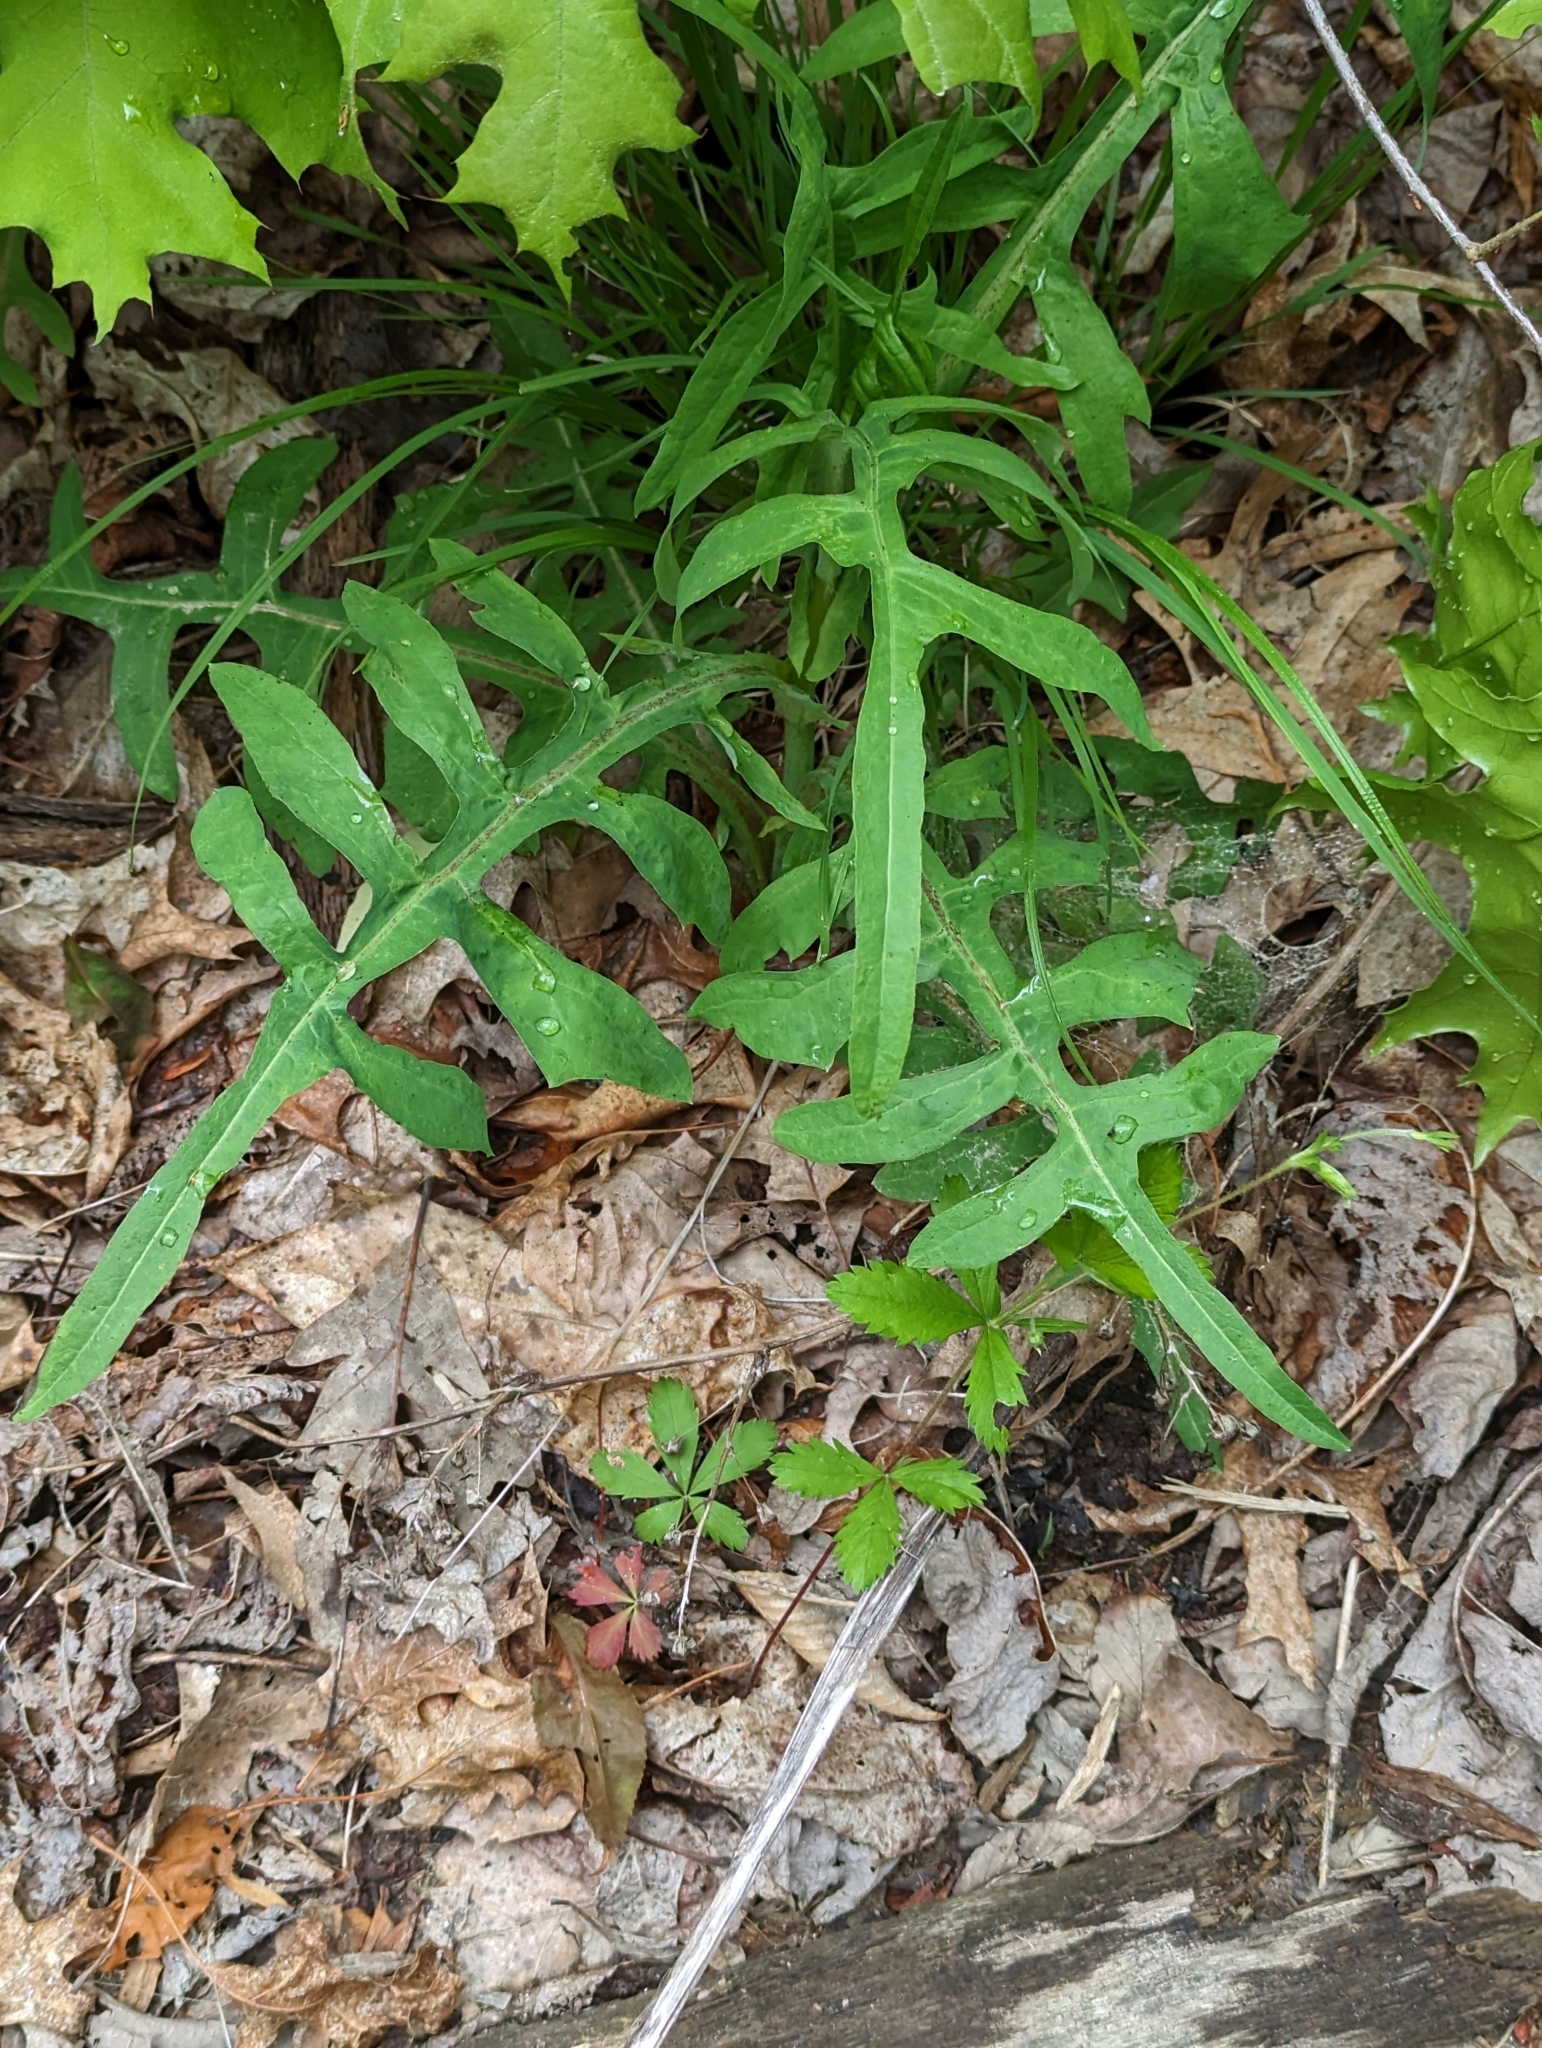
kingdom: Plantae
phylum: Tracheophyta
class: Magnoliopsida
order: Asterales
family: Asteraceae
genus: Lactuca
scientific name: Lactuca canadensis
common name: Canada lettuce
